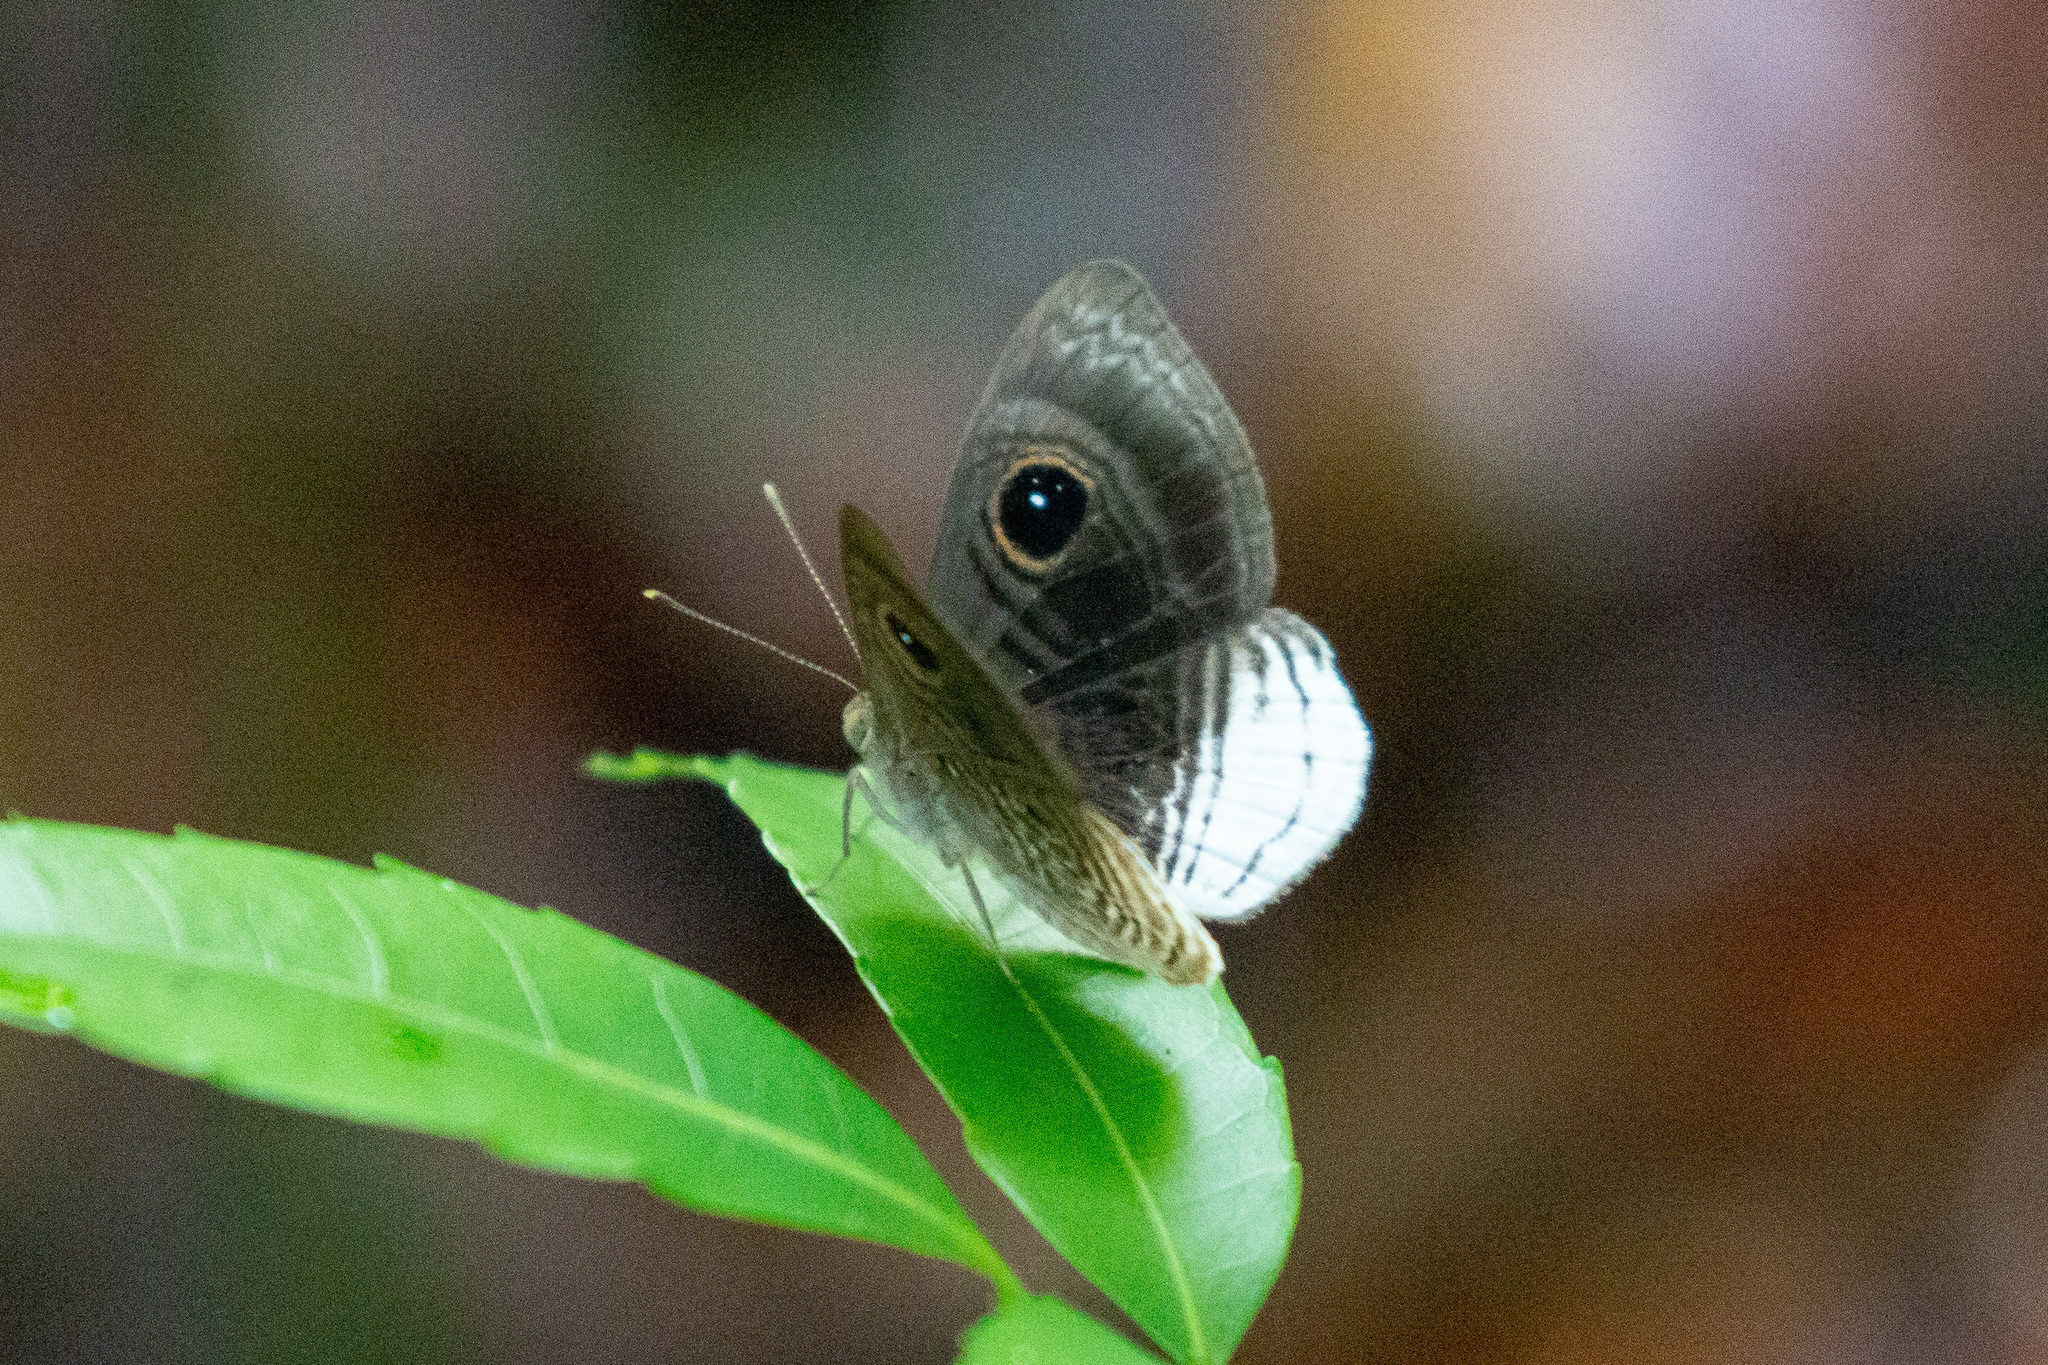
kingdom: Animalia
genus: Mesosemia
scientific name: Mesosemia nyctea
